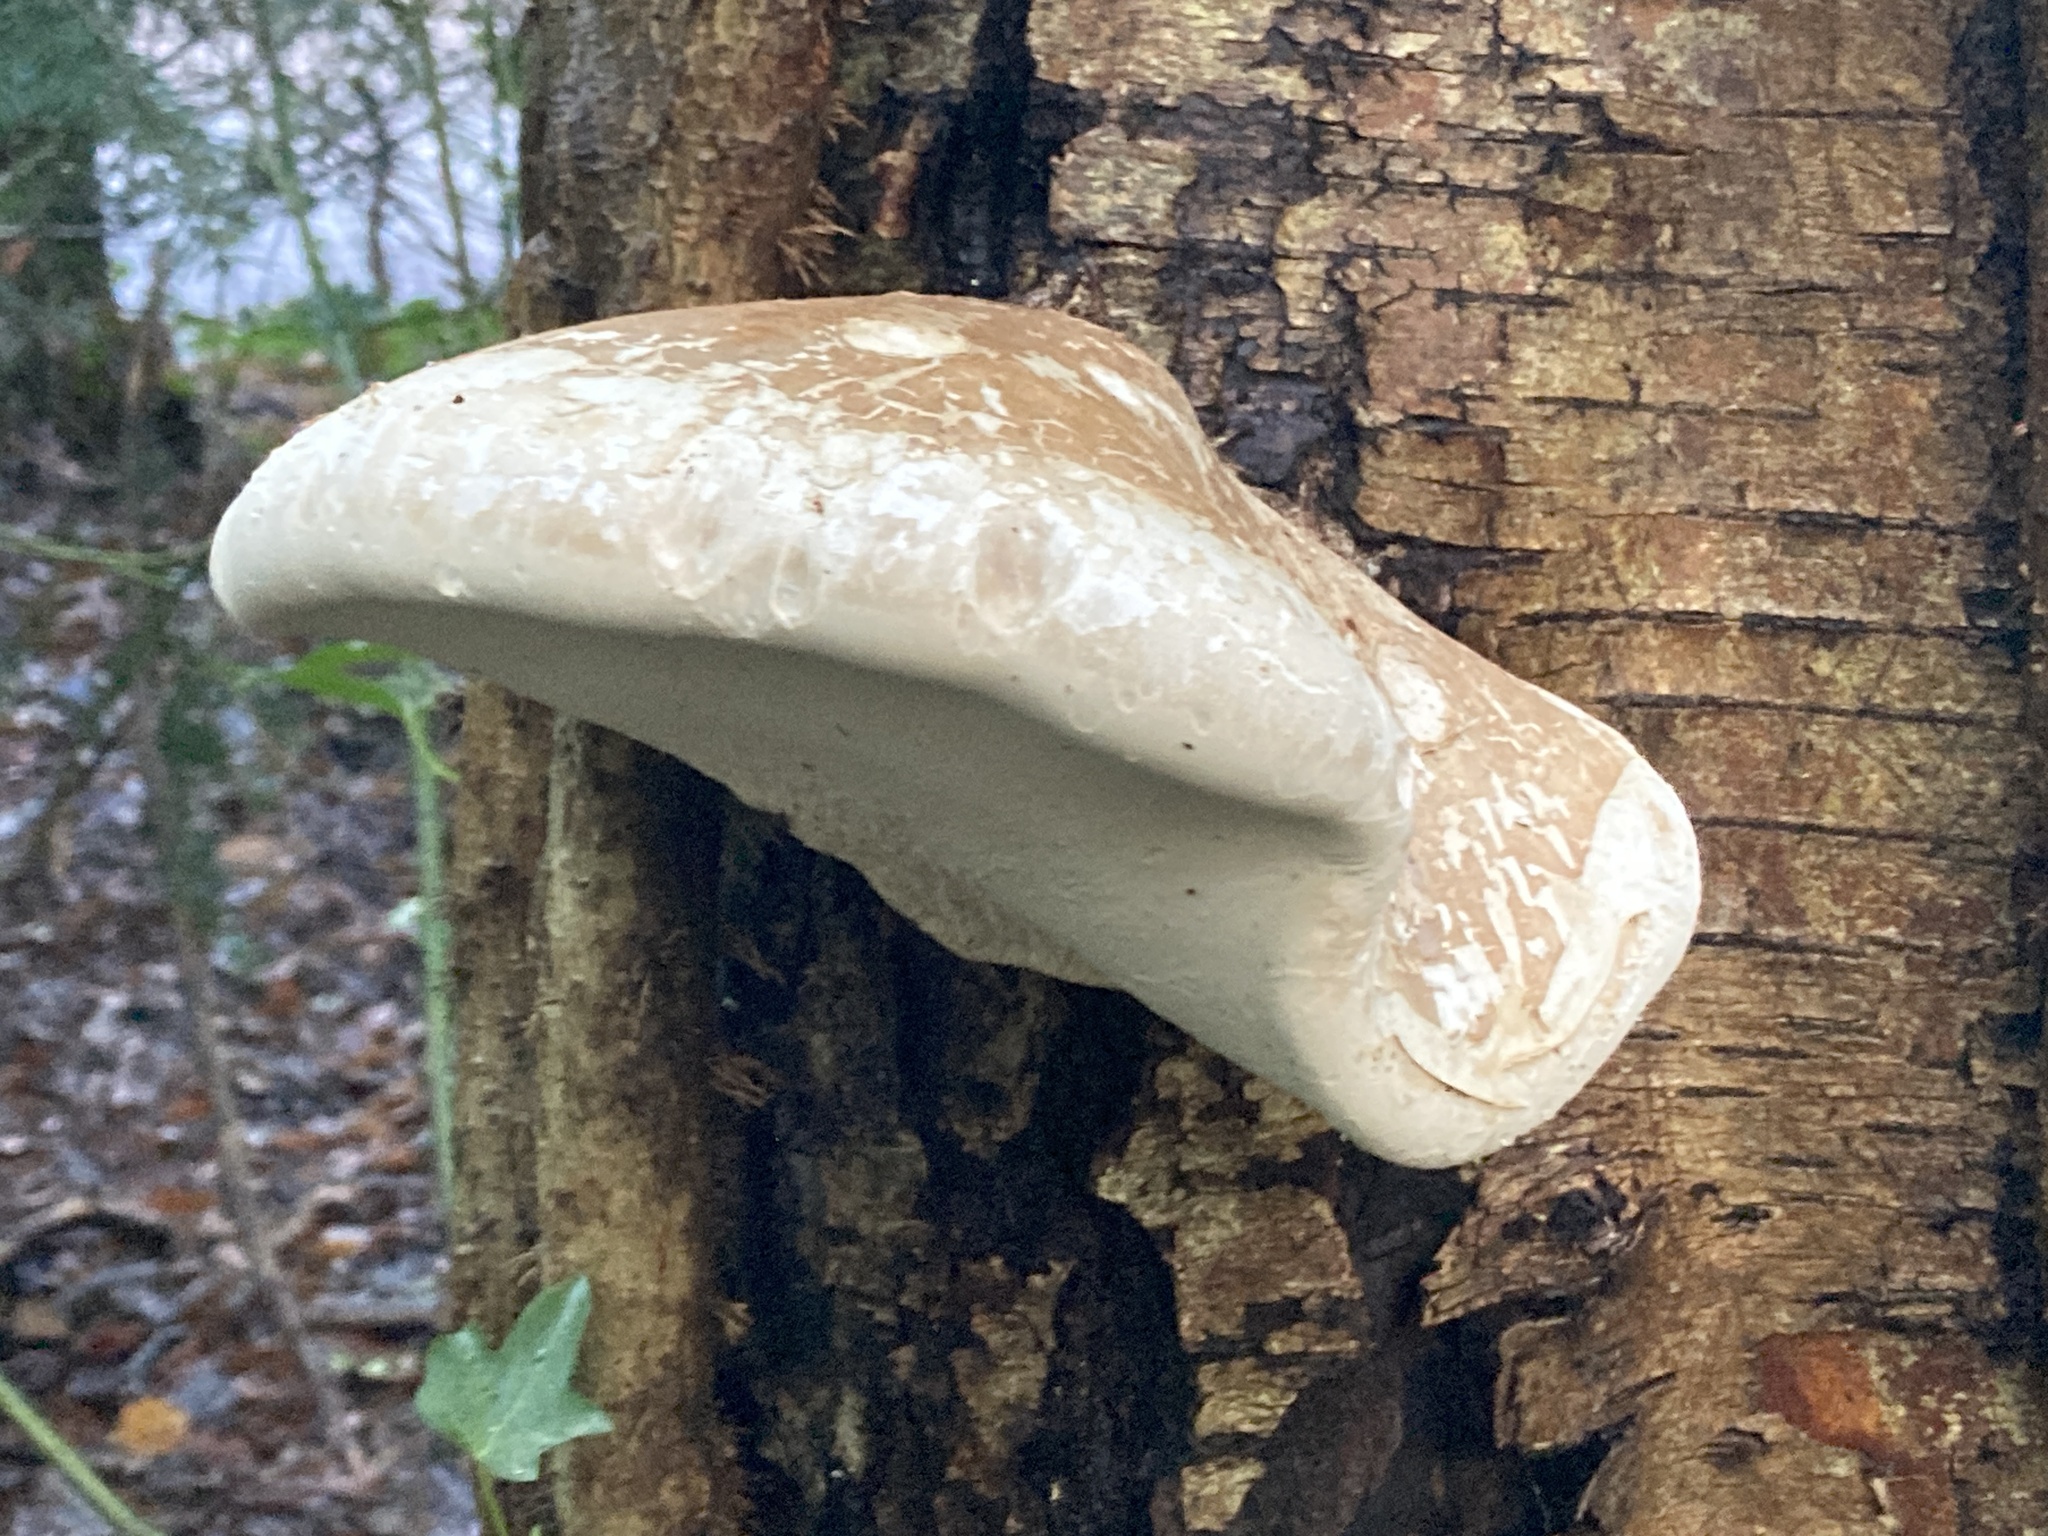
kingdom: Fungi
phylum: Basidiomycota
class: Agaricomycetes
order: Polyporales
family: Fomitopsidaceae
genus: Fomitopsis
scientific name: Fomitopsis betulina
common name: Birch polypore
